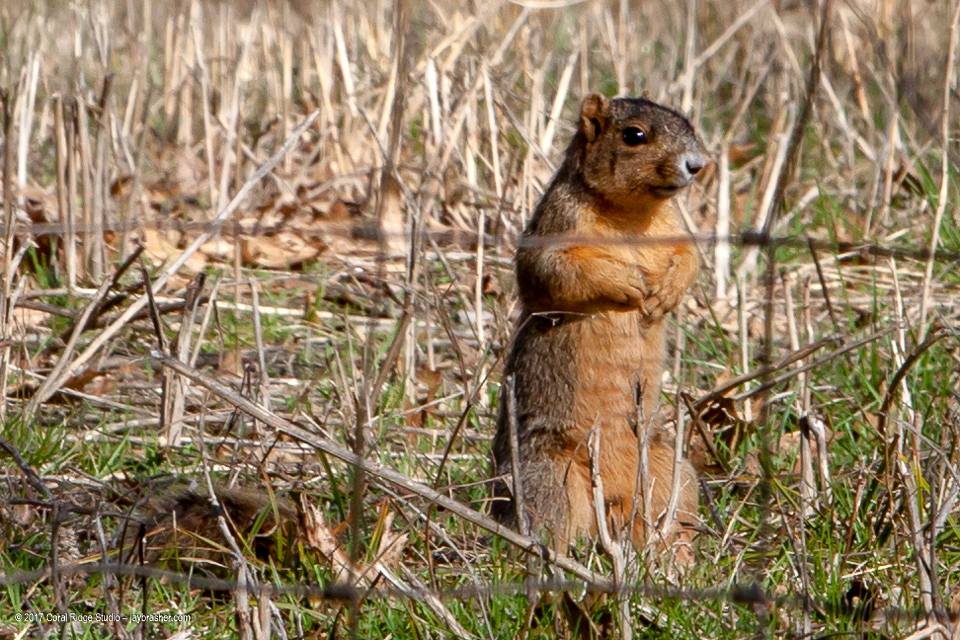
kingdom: Animalia
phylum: Chordata
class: Mammalia
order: Rodentia
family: Sciuridae
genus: Sciurus
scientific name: Sciurus niger
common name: Fox squirrel
